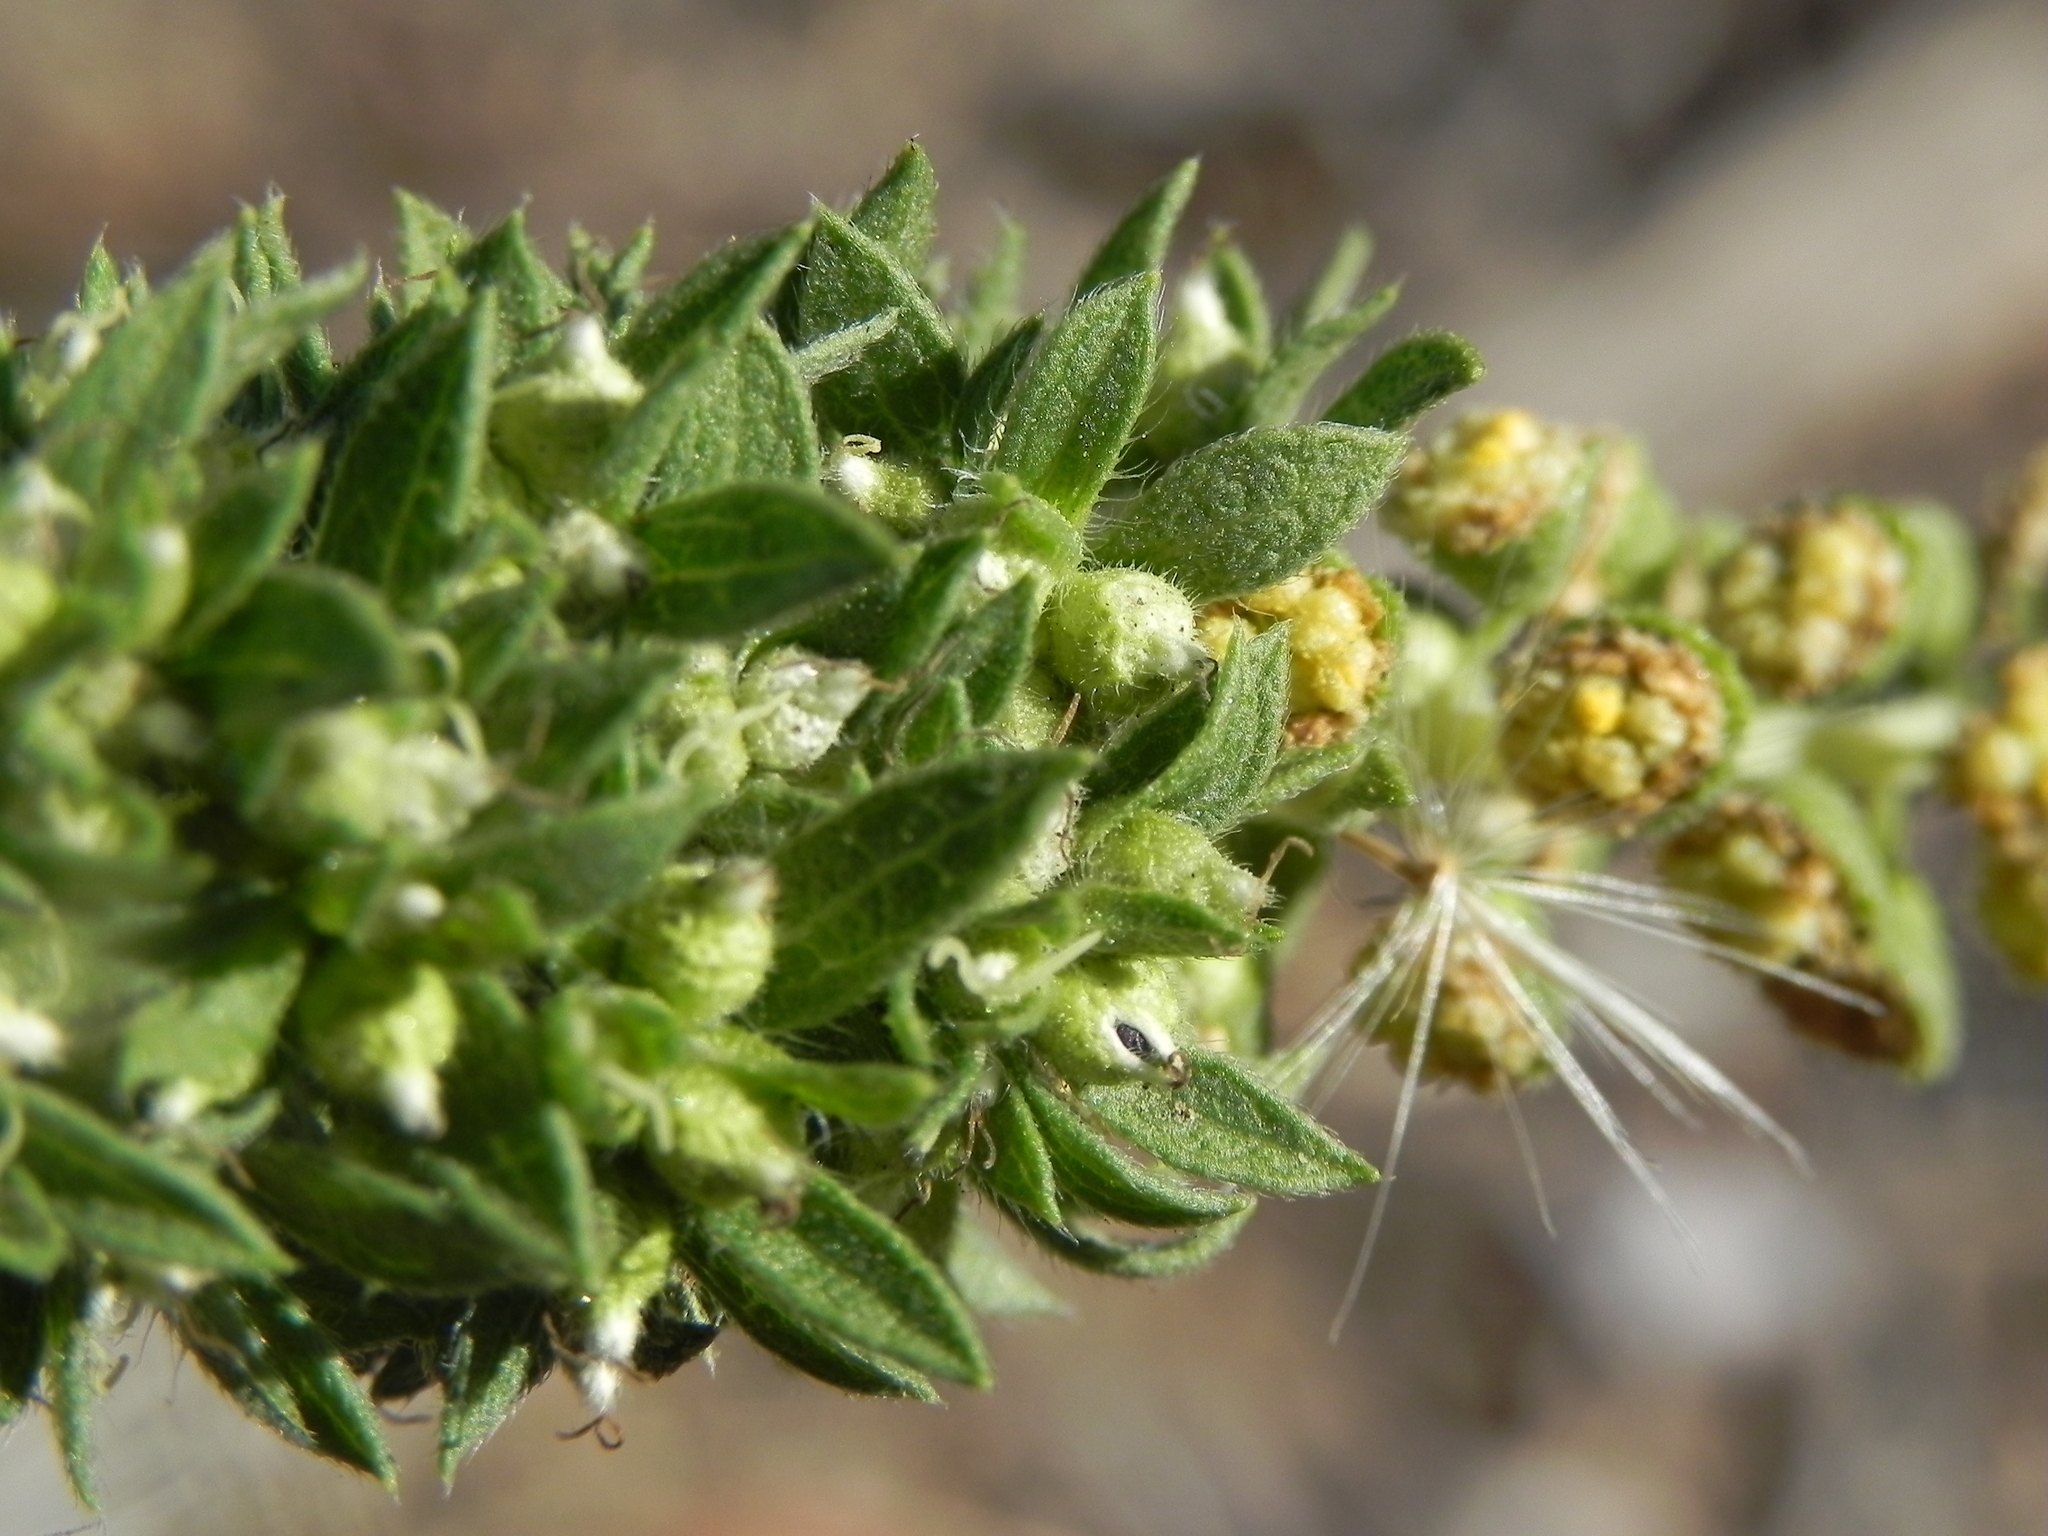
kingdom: Plantae
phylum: Tracheophyta
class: Magnoliopsida
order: Asterales
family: Asteraceae
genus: Ambrosia
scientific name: Ambrosia psilostachya
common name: Perennial ragweed
